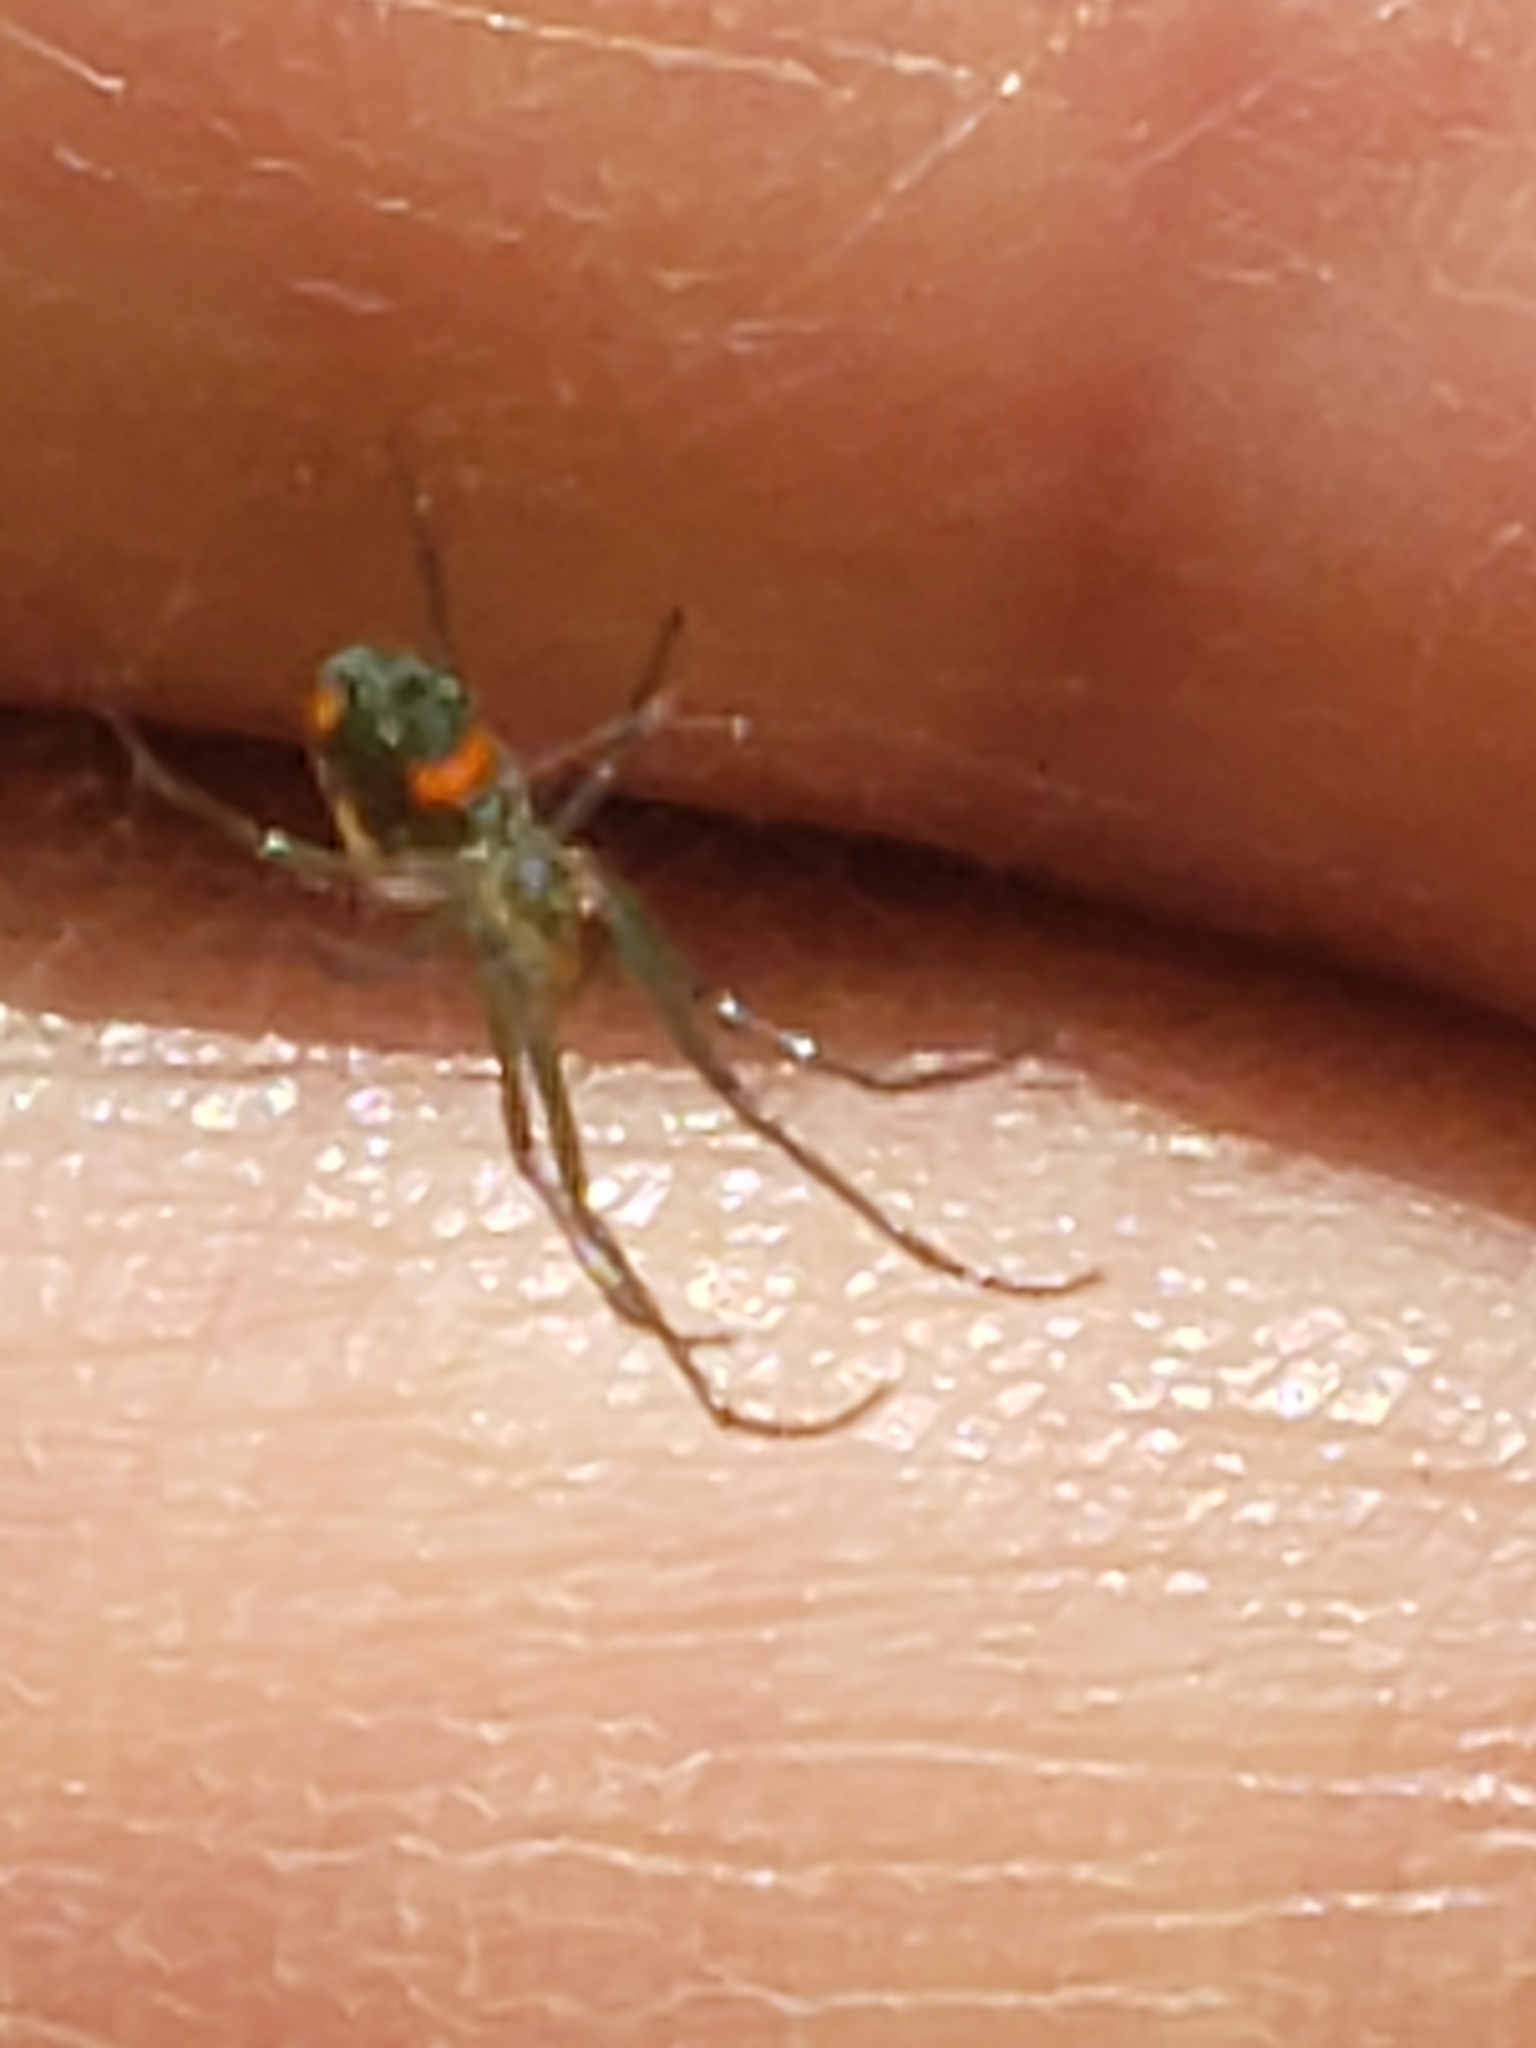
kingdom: Animalia
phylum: Arthropoda
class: Arachnida
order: Araneae
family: Tetragnathidae
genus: Leucauge
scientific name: Leucauge argyrobapta
